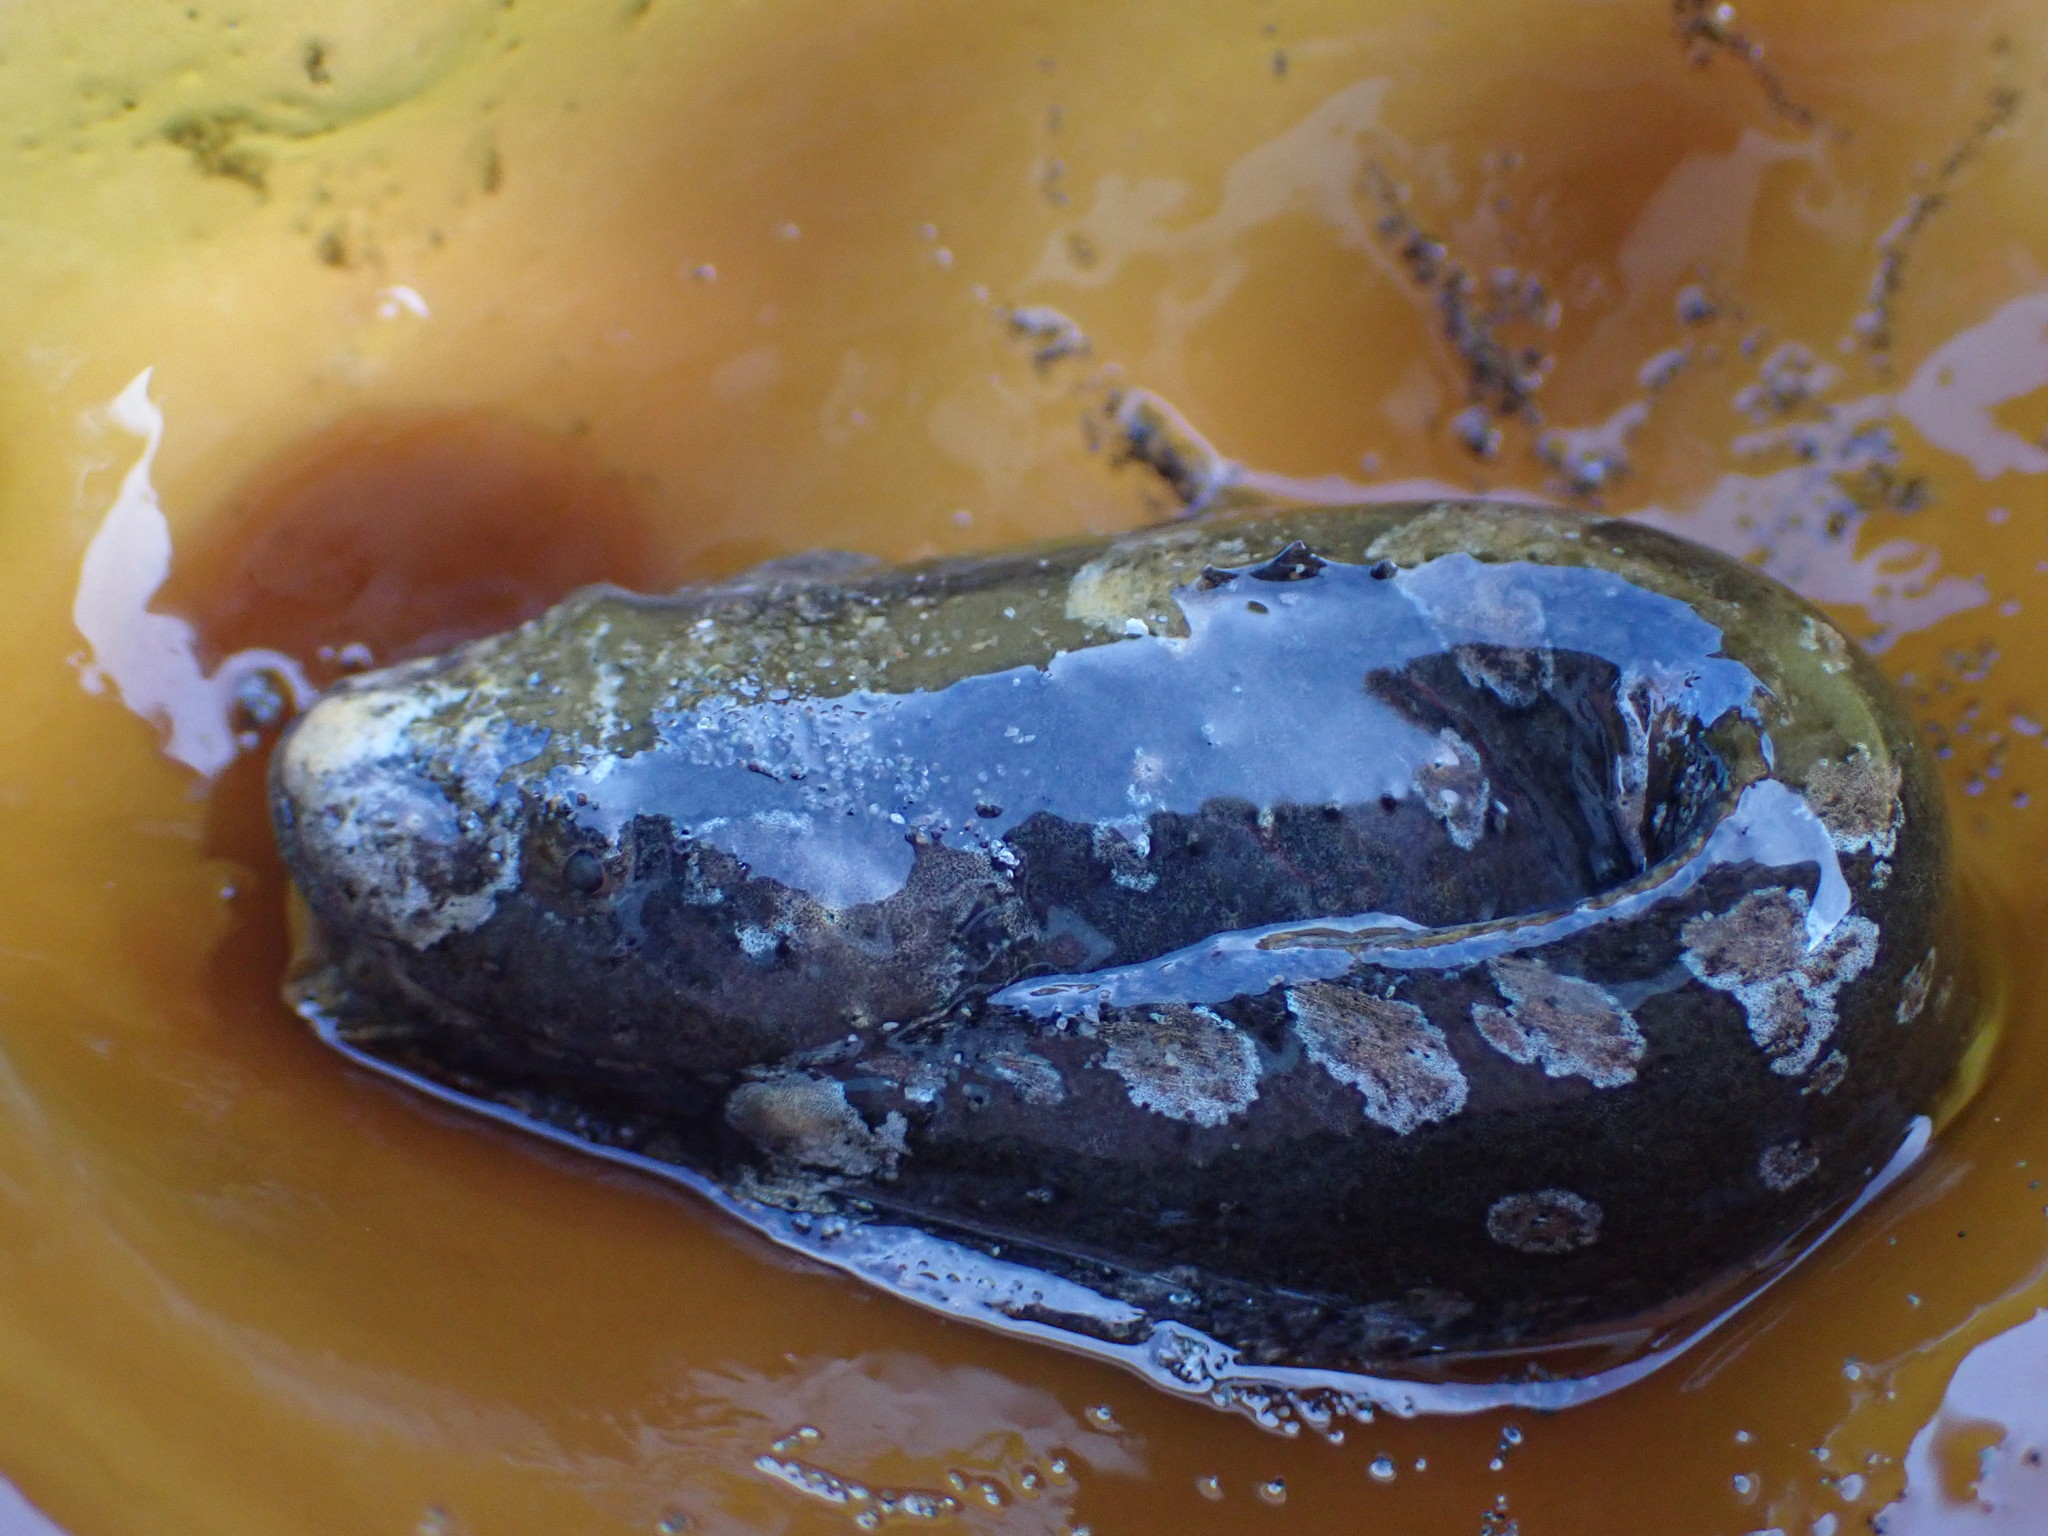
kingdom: Animalia
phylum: Chordata
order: Scorpaeniformes
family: Liparidae
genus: Liparis
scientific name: Liparis cyclopus
